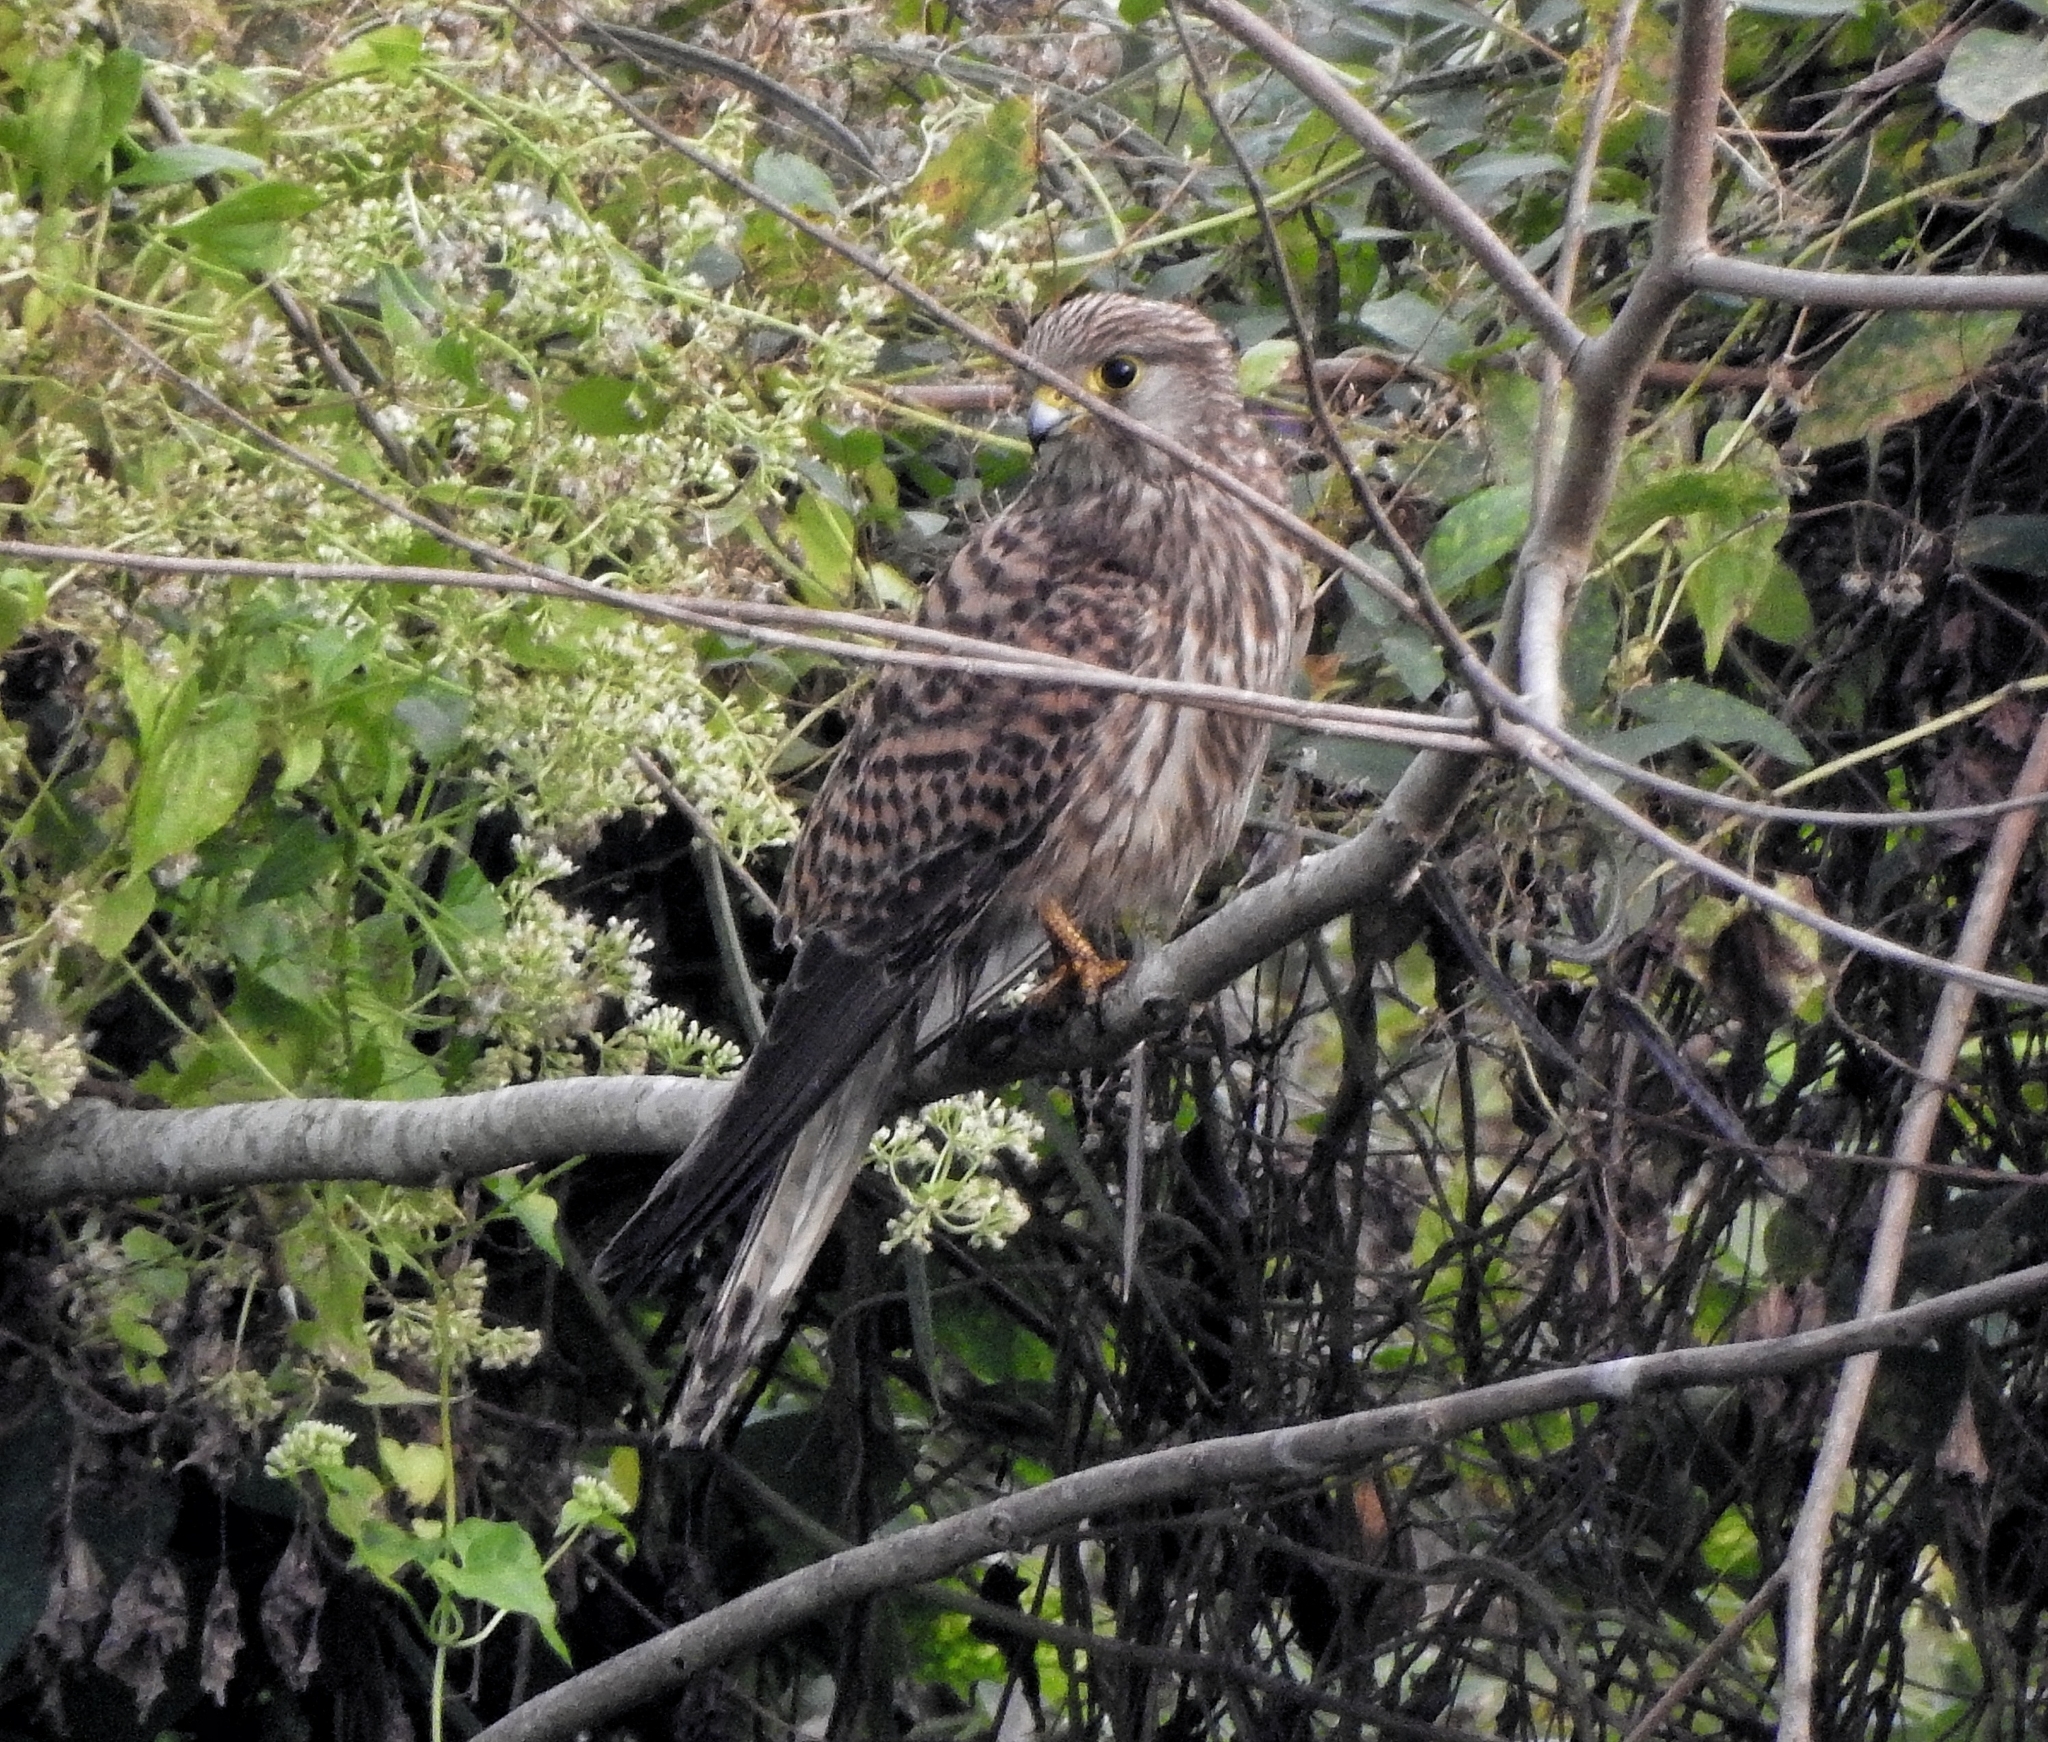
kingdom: Animalia
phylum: Chordata
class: Aves
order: Falconiformes
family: Falconidae
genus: Falco
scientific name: Falco tinnunculus
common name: Common kestrel
